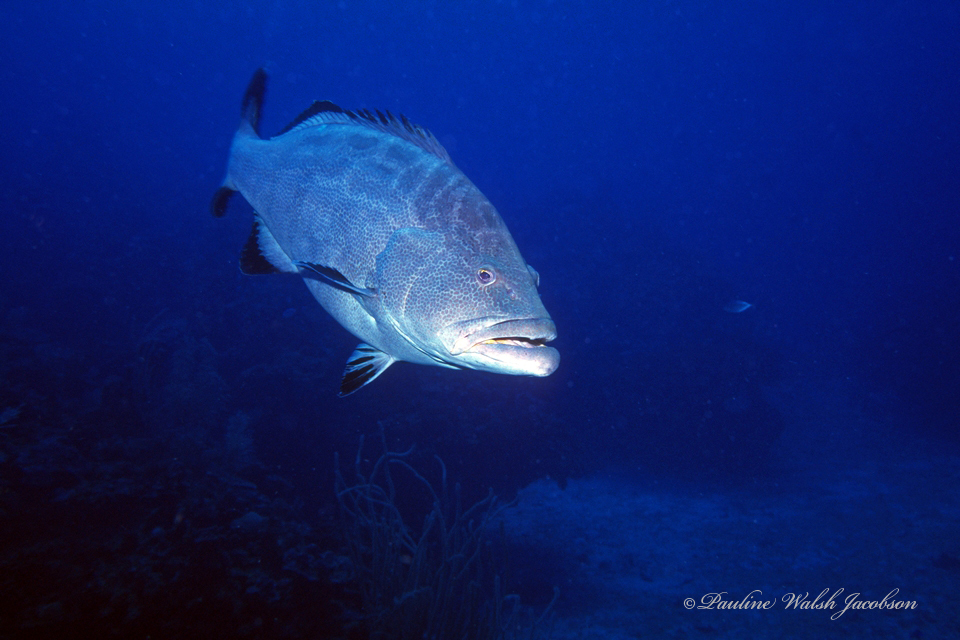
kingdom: Animalia
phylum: Chordata
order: Perciformes
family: Serranidae
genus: Mycteroperca
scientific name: Mycteroperca bonaci
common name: Black grouper
